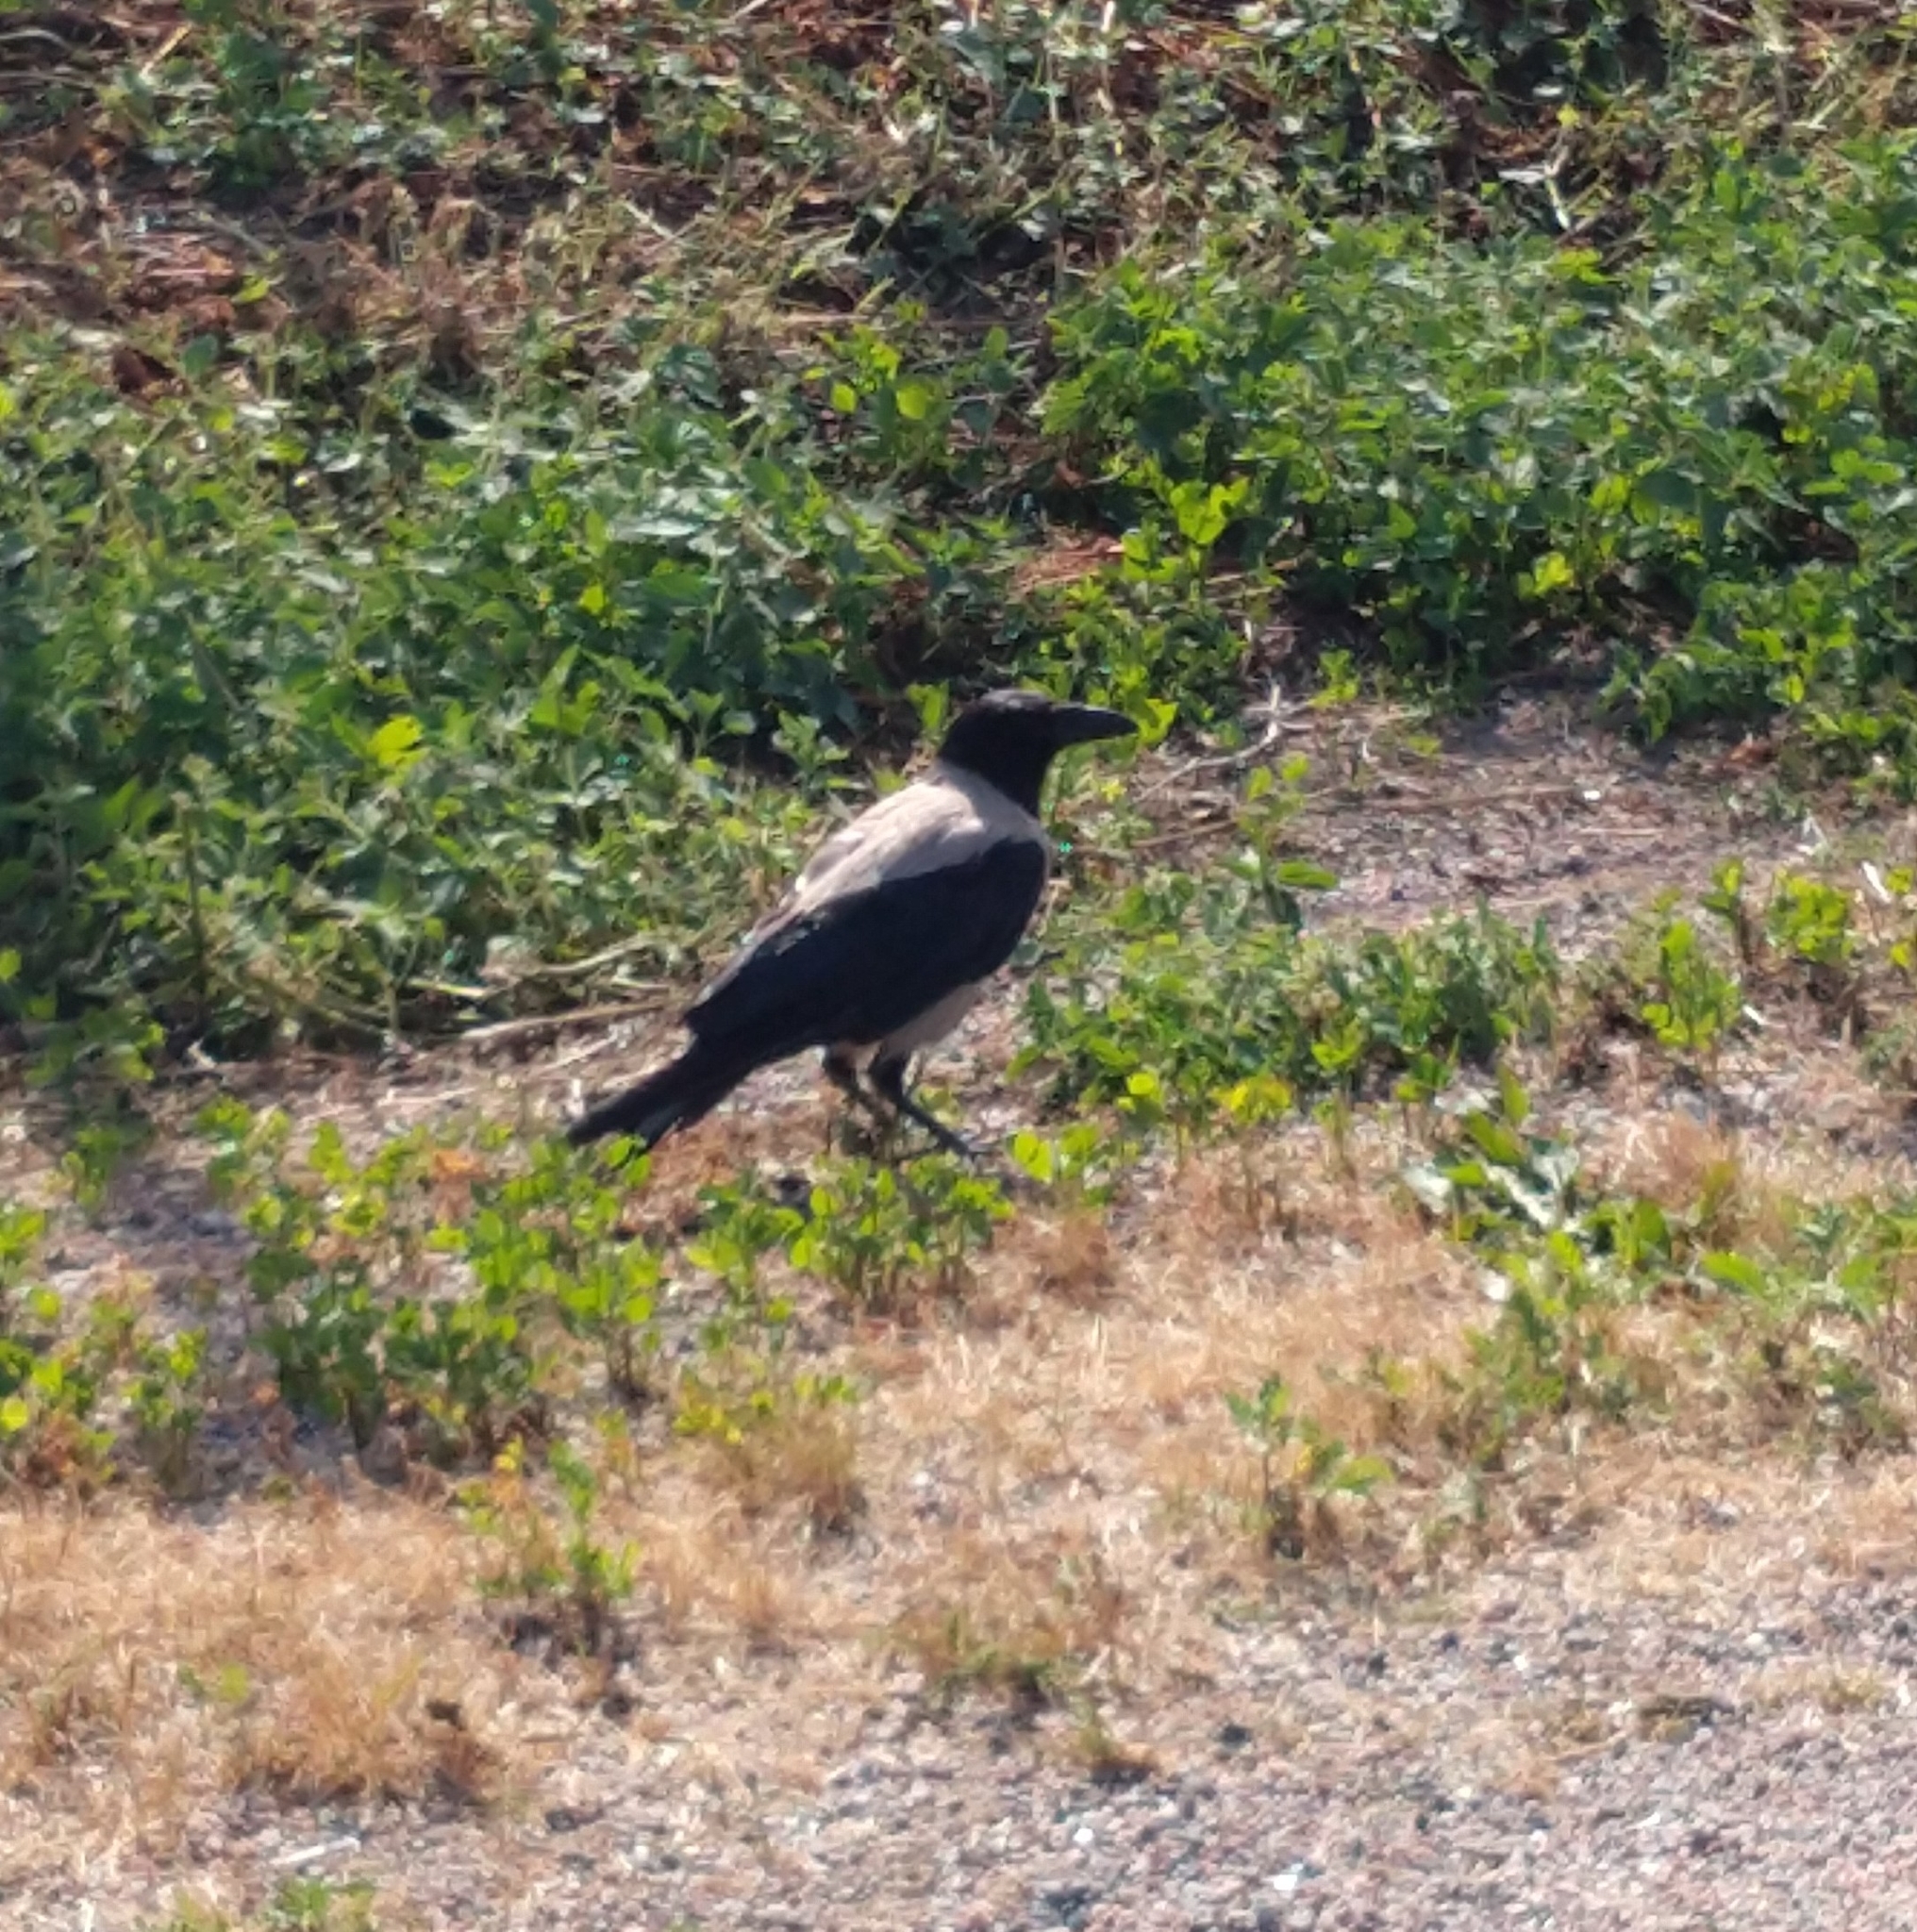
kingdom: Animalia
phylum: Chordata
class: Aves
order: Passeriformes
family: Corvidae
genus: Corvus
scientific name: Corvus cornix
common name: Hooded crow
